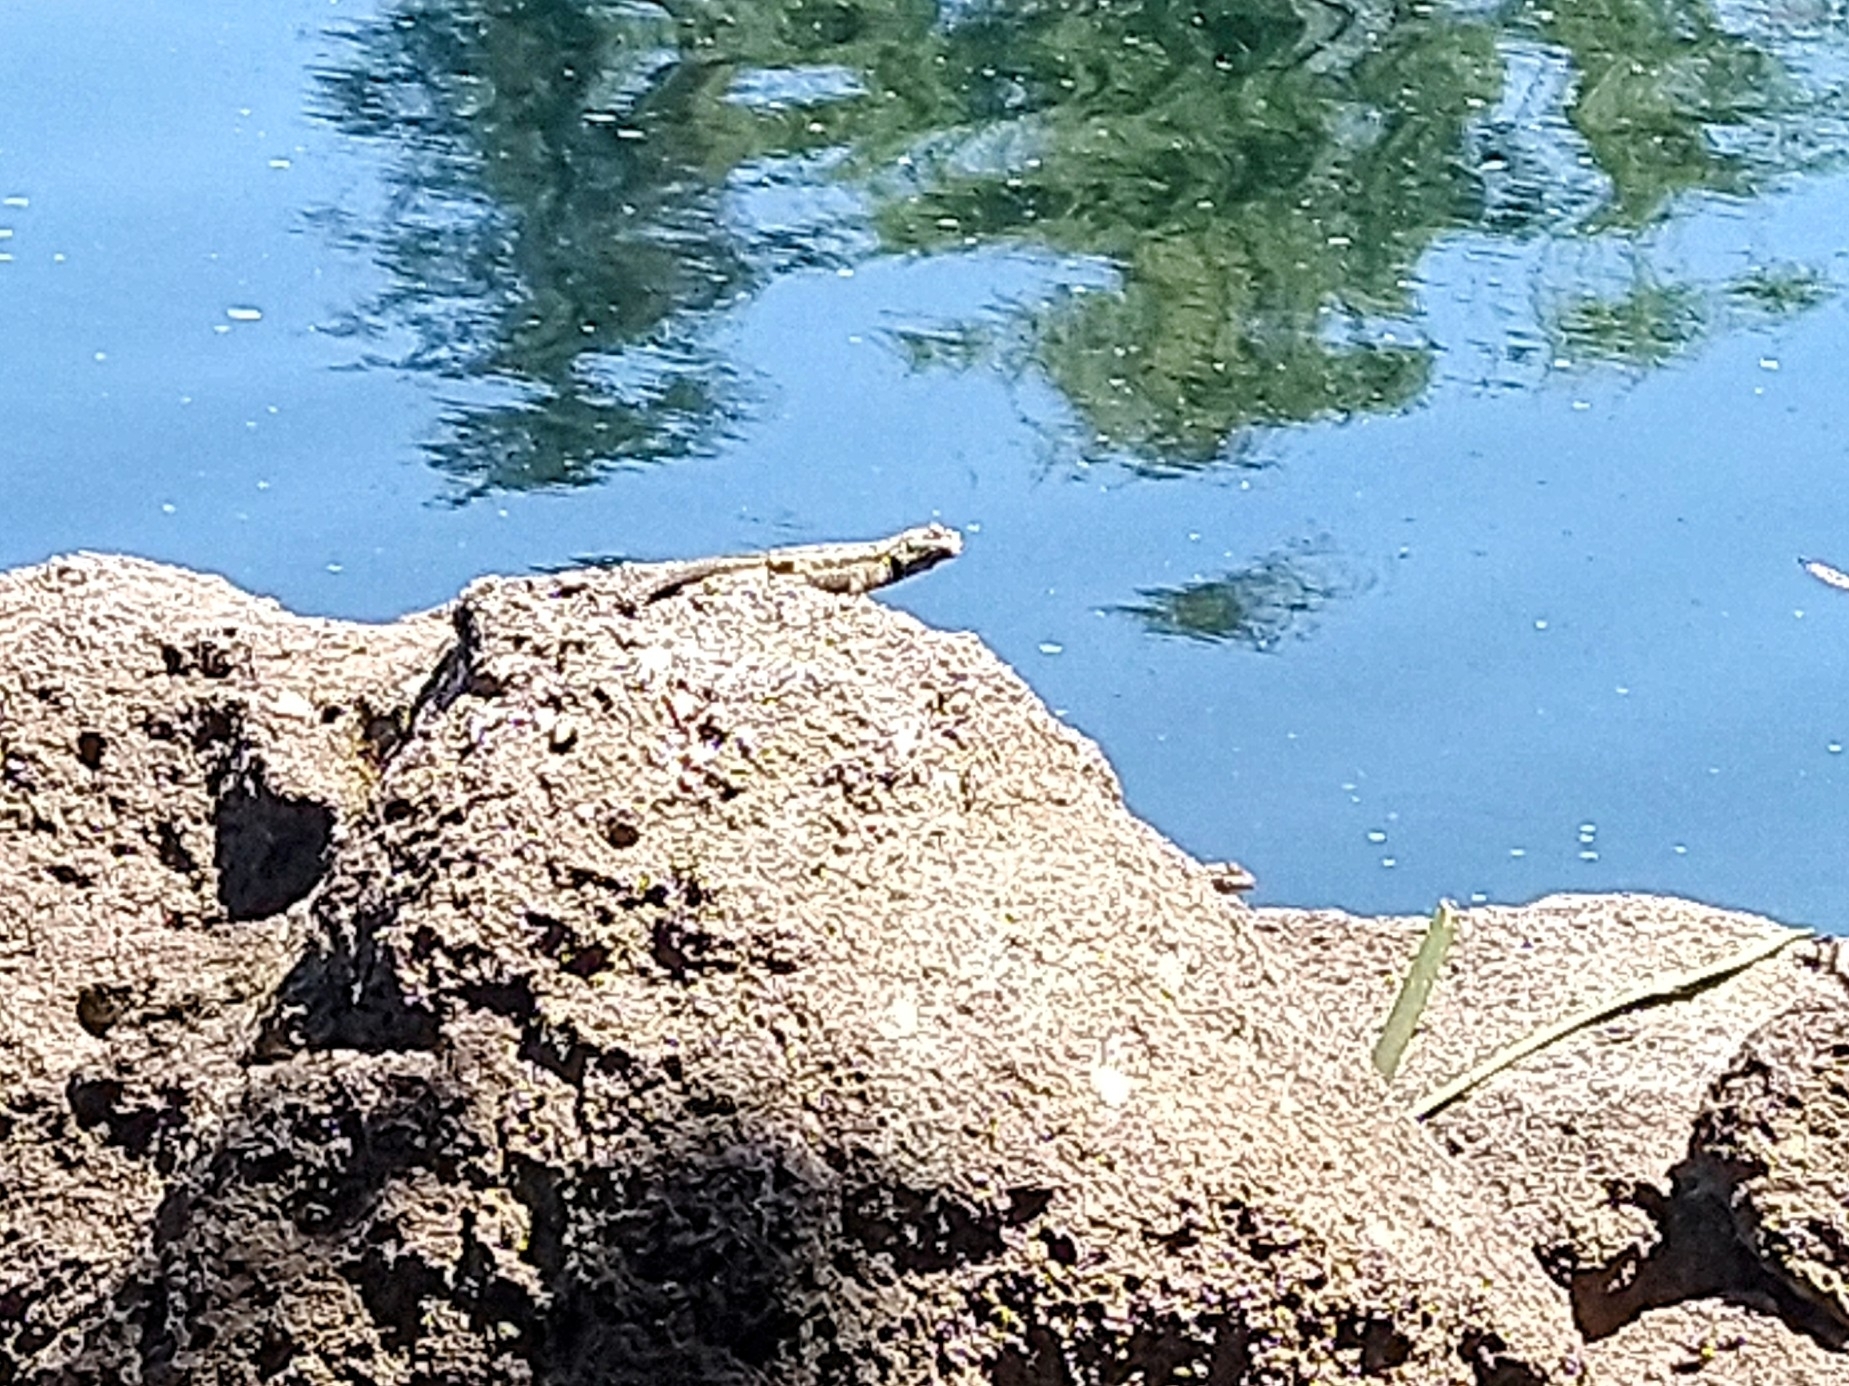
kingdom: Animalia
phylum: Chordata
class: Squamata
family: Phrynosomatidae
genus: Sceloporus
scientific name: Sceloporus occidentalis
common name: Western fence lizard
